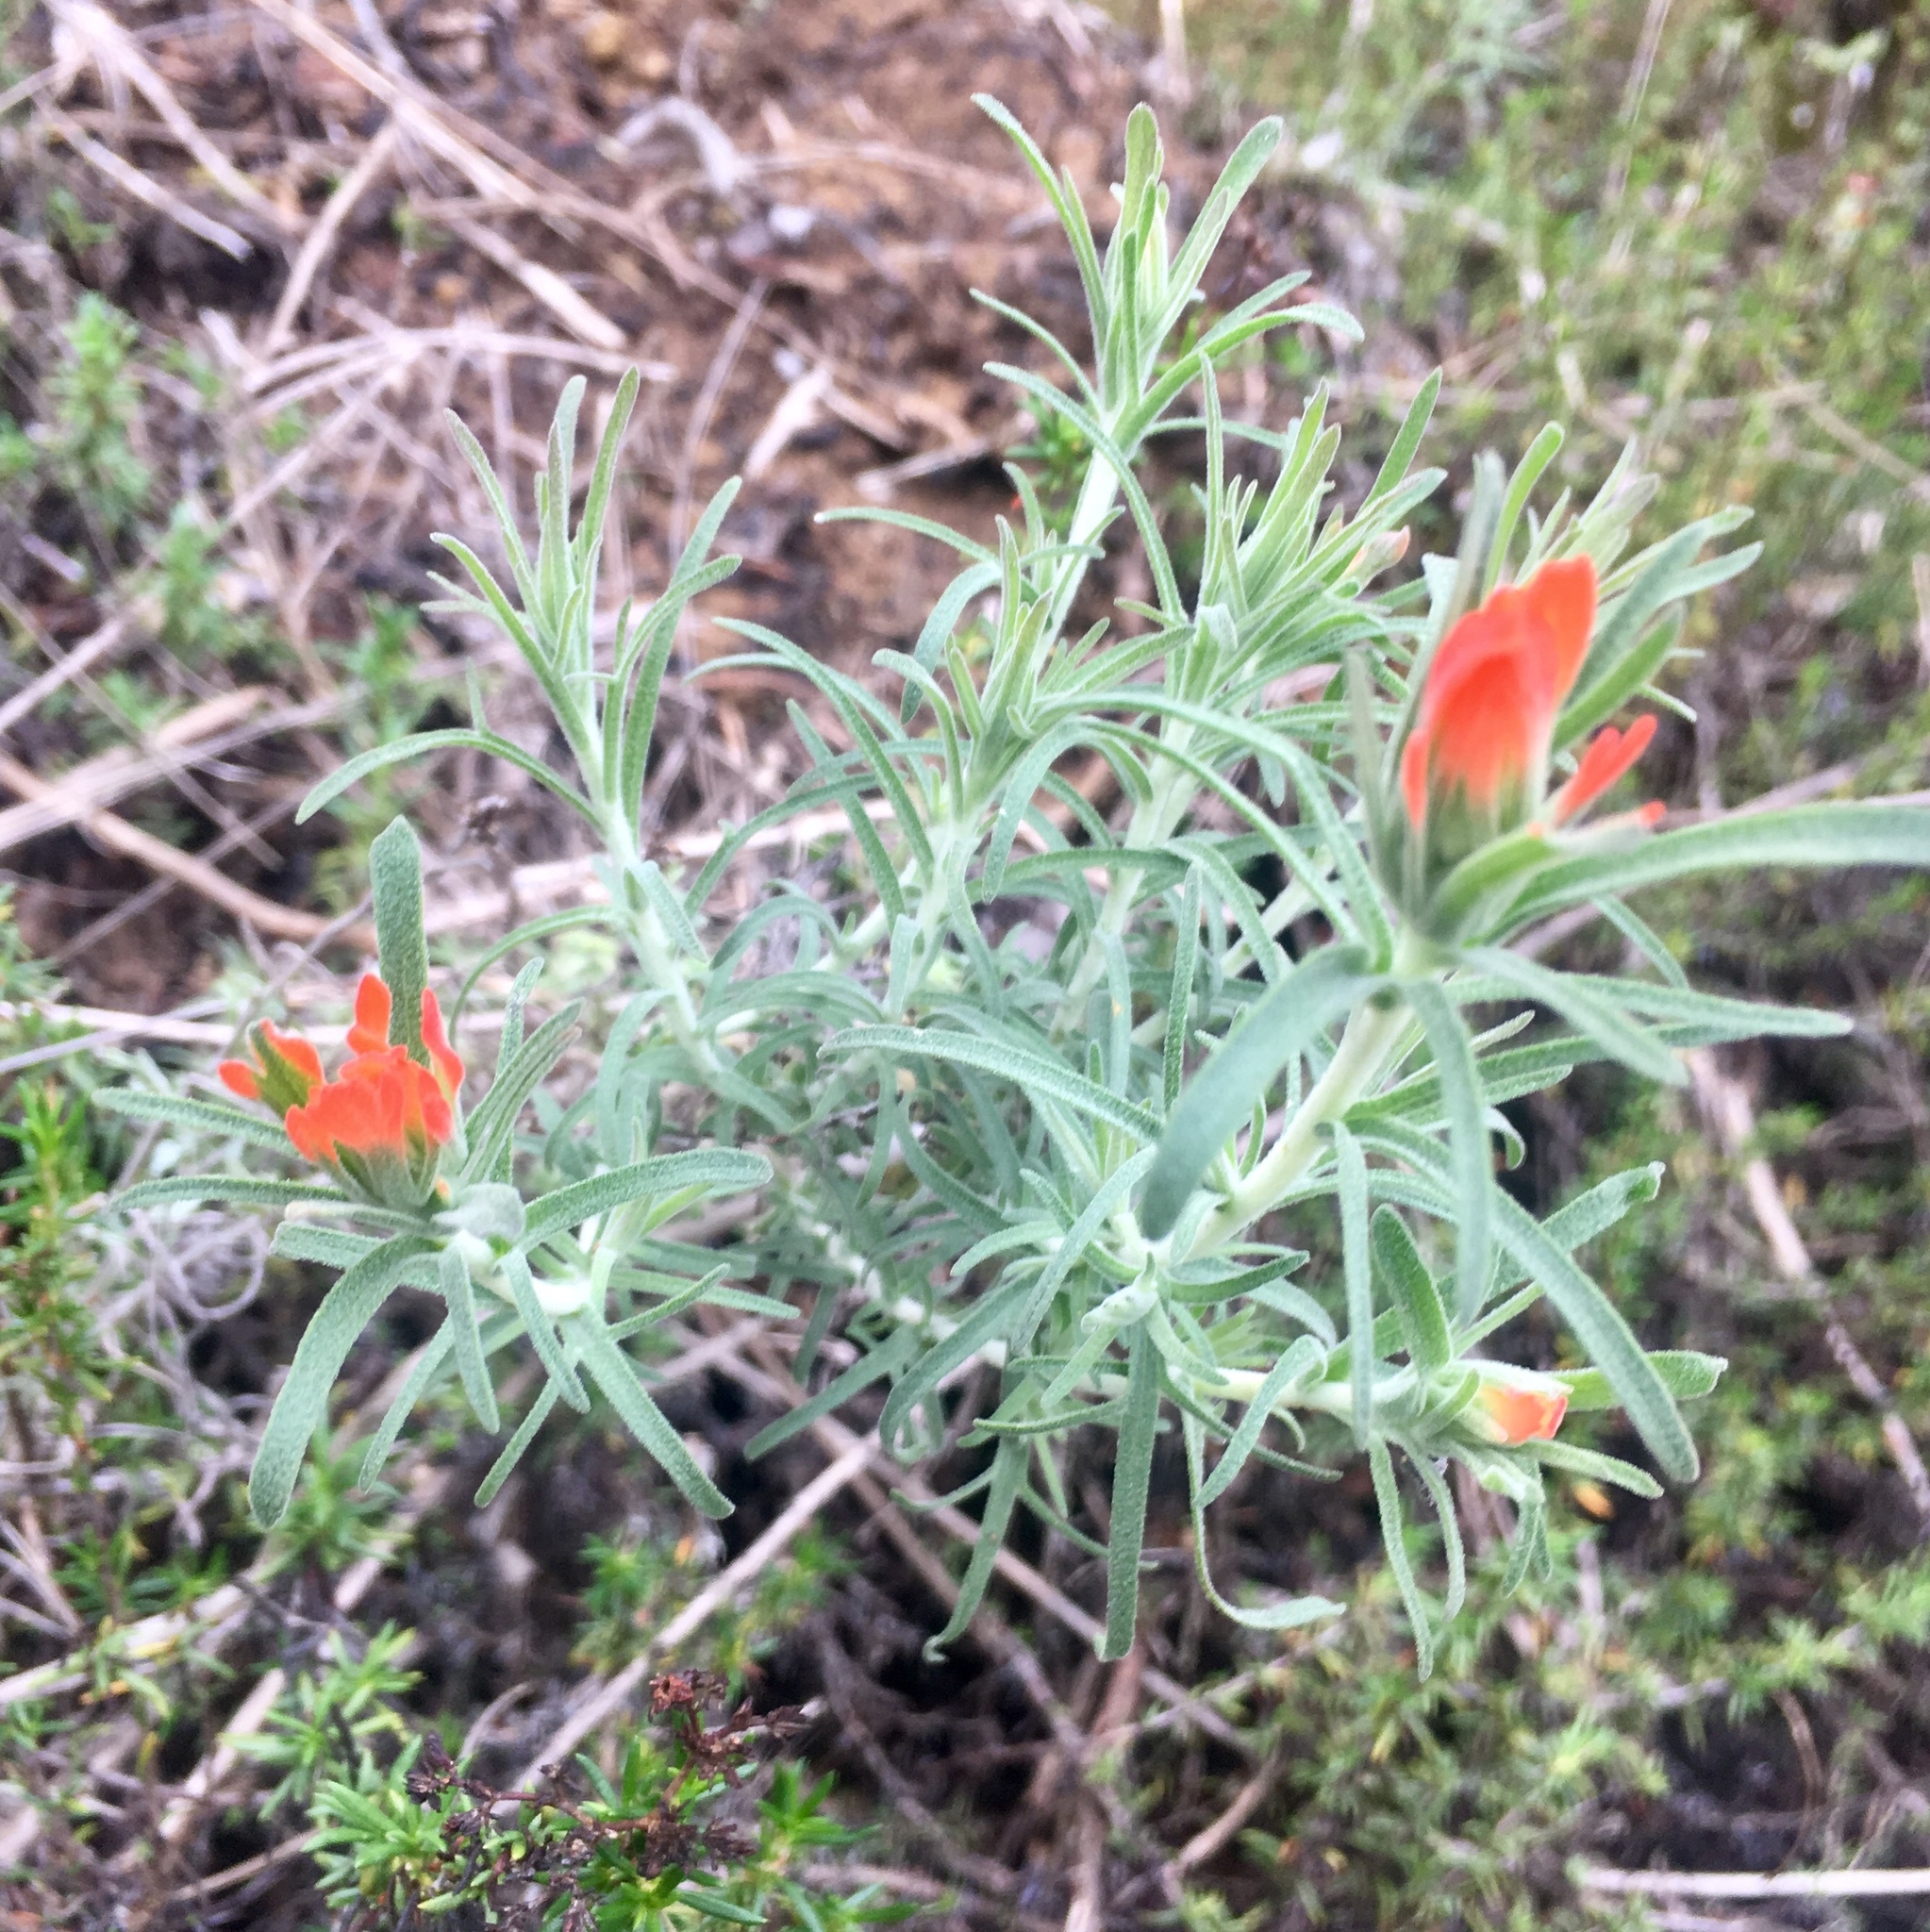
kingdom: Plantae
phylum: Tracheophyta
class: Magnoliopsida
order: Lamiales
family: Orobanchaceae
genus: Castilleja
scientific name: Castilleja foliolosa
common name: Woolly indian paintbrush
